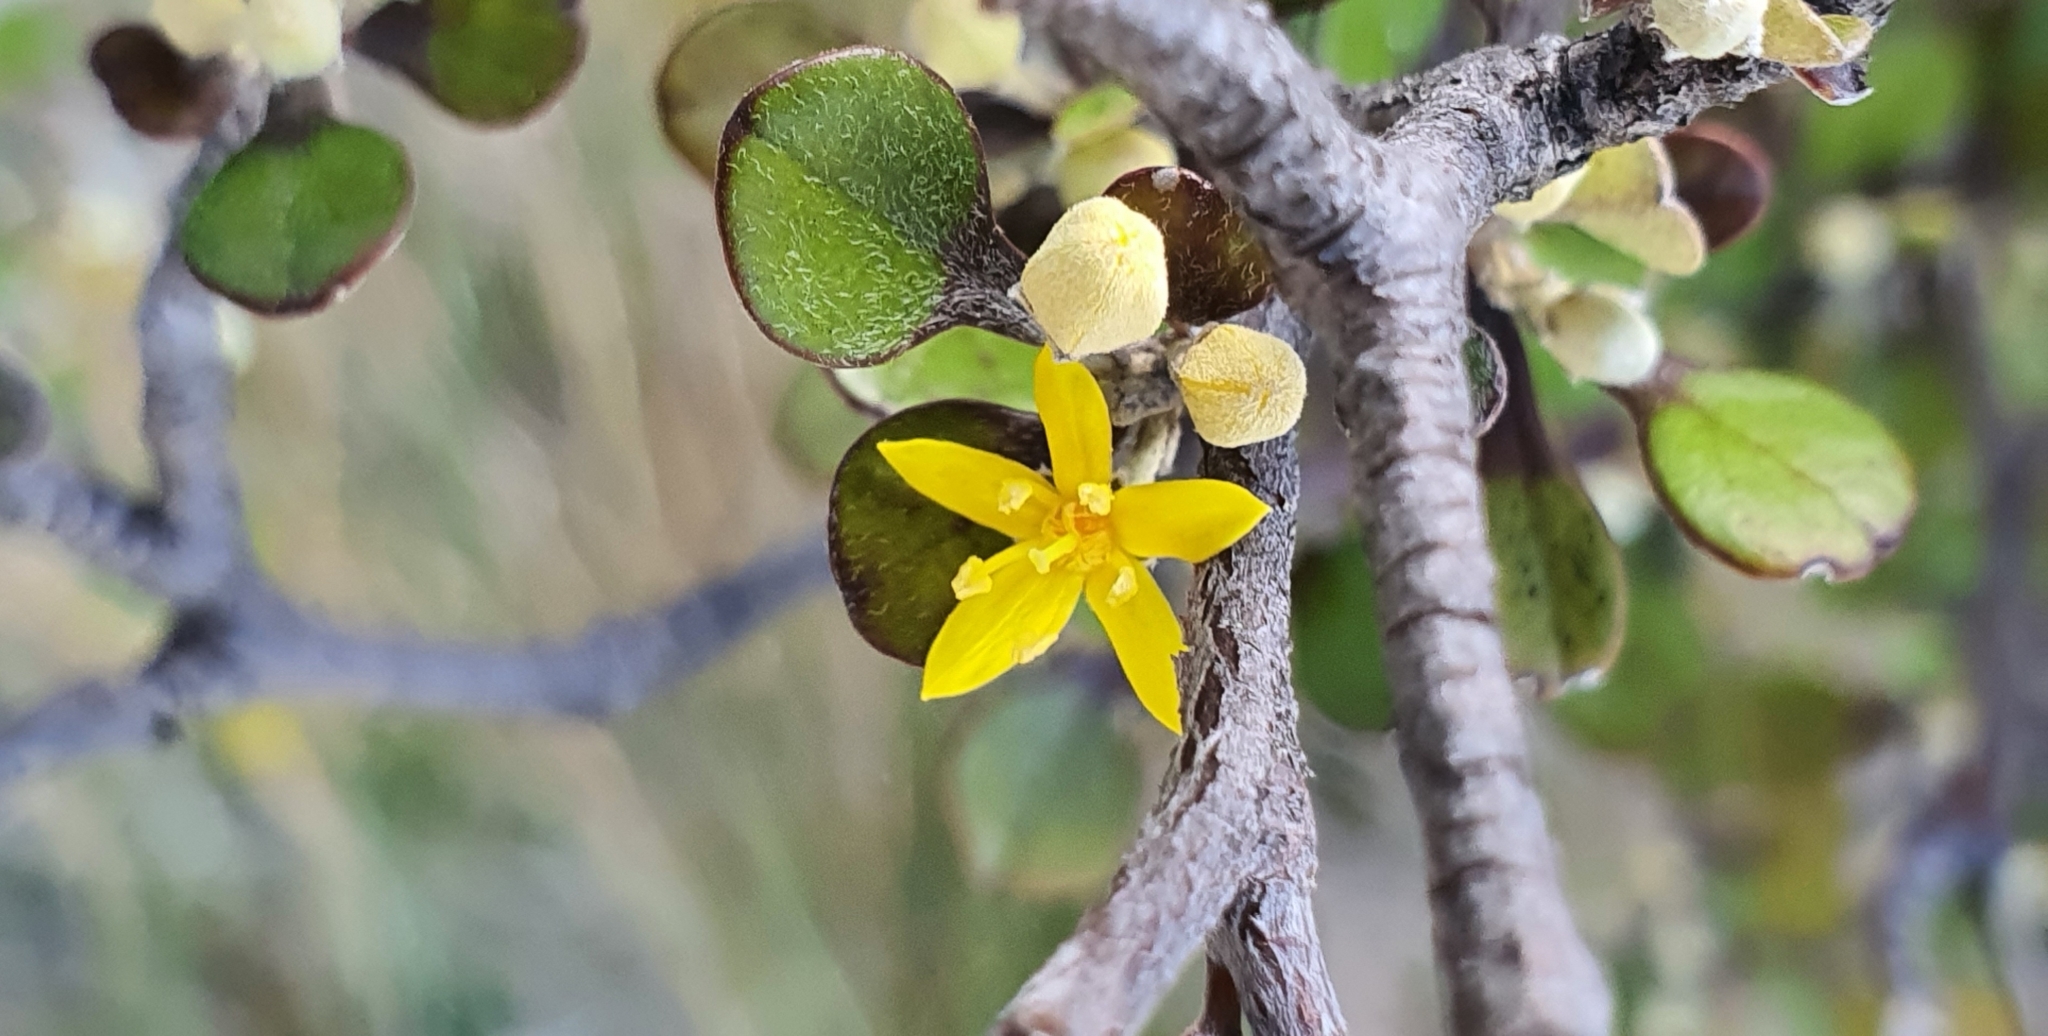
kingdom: Plantae
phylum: Tracheophyta
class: Magnoliopsida
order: Asterales
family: Argophyllaceae
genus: Corokia
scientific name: Corokia cotoneaster
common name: Wire nettingbush
